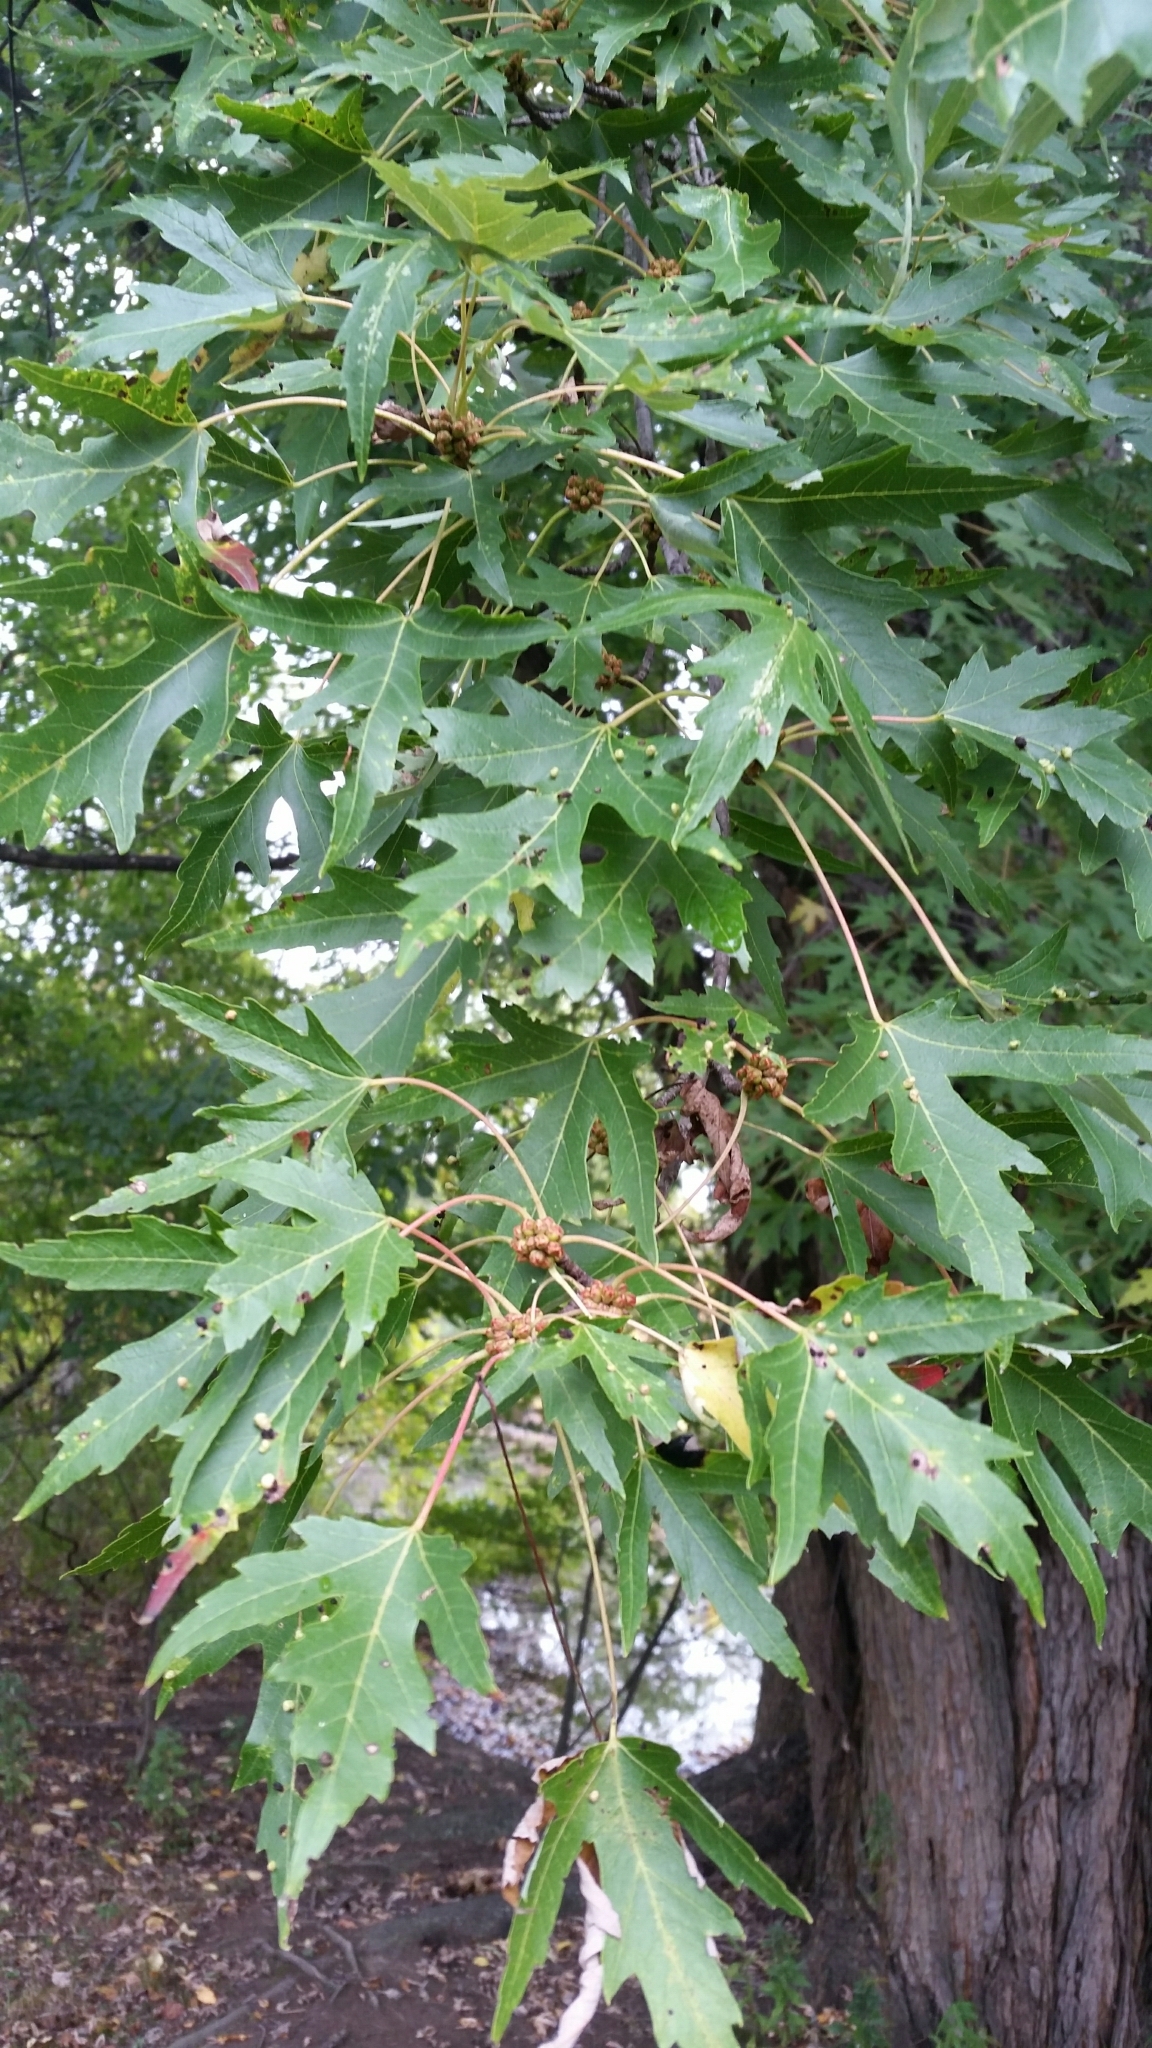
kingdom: Plantae
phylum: Tracheophyta
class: Magnoliopsida
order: Sapindales
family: Sapindaceae
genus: Acer
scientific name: Acer saccharinum
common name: Silver maple
